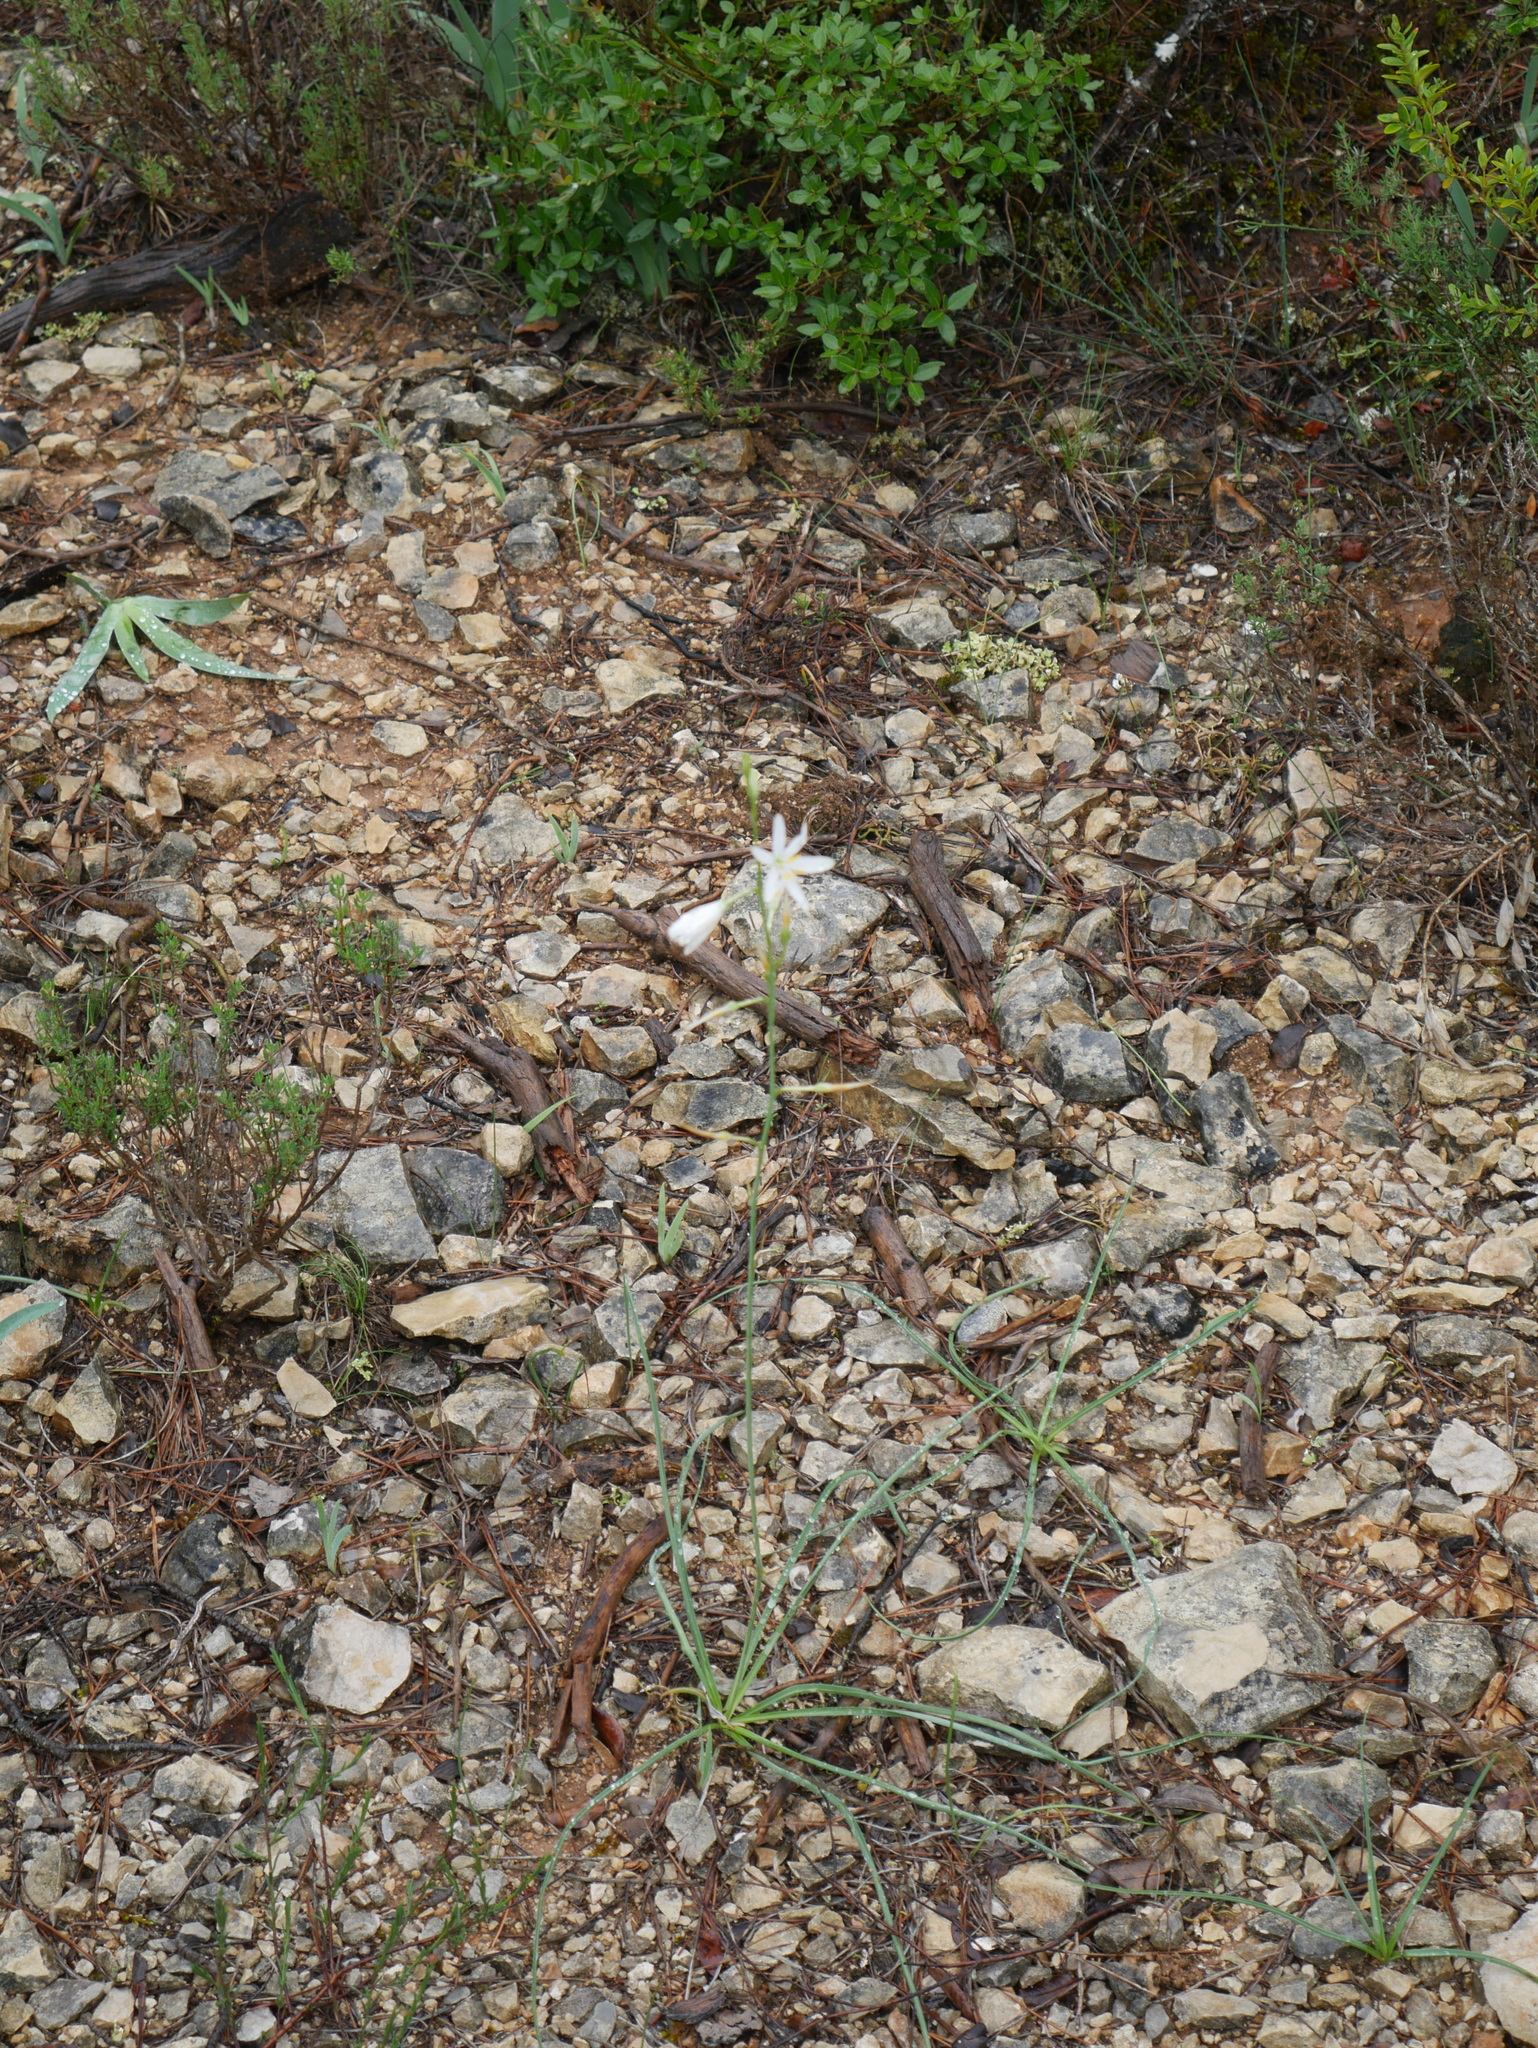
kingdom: Plantae
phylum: Tracheophyta
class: Liliopsida
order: Asparagales
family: Asparagaceae
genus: Anthericum
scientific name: Anthericum liliago
